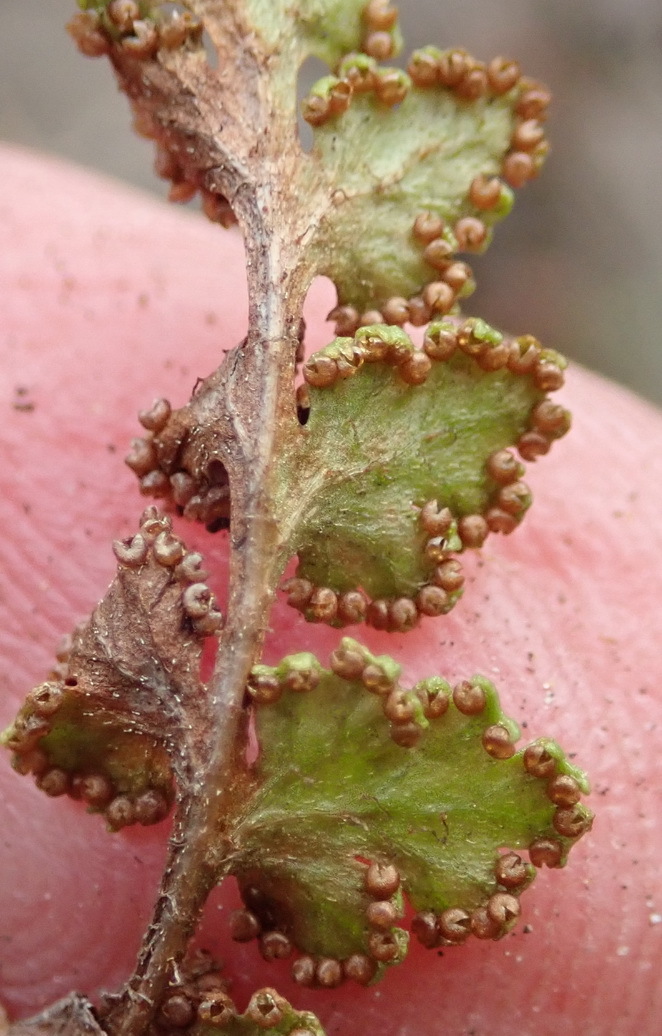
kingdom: Plantae
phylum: Tracheophyta
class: Polypodiopsida
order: Schizaeales
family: Anemiaceae
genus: Anemia
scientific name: Anemia caffrorum
